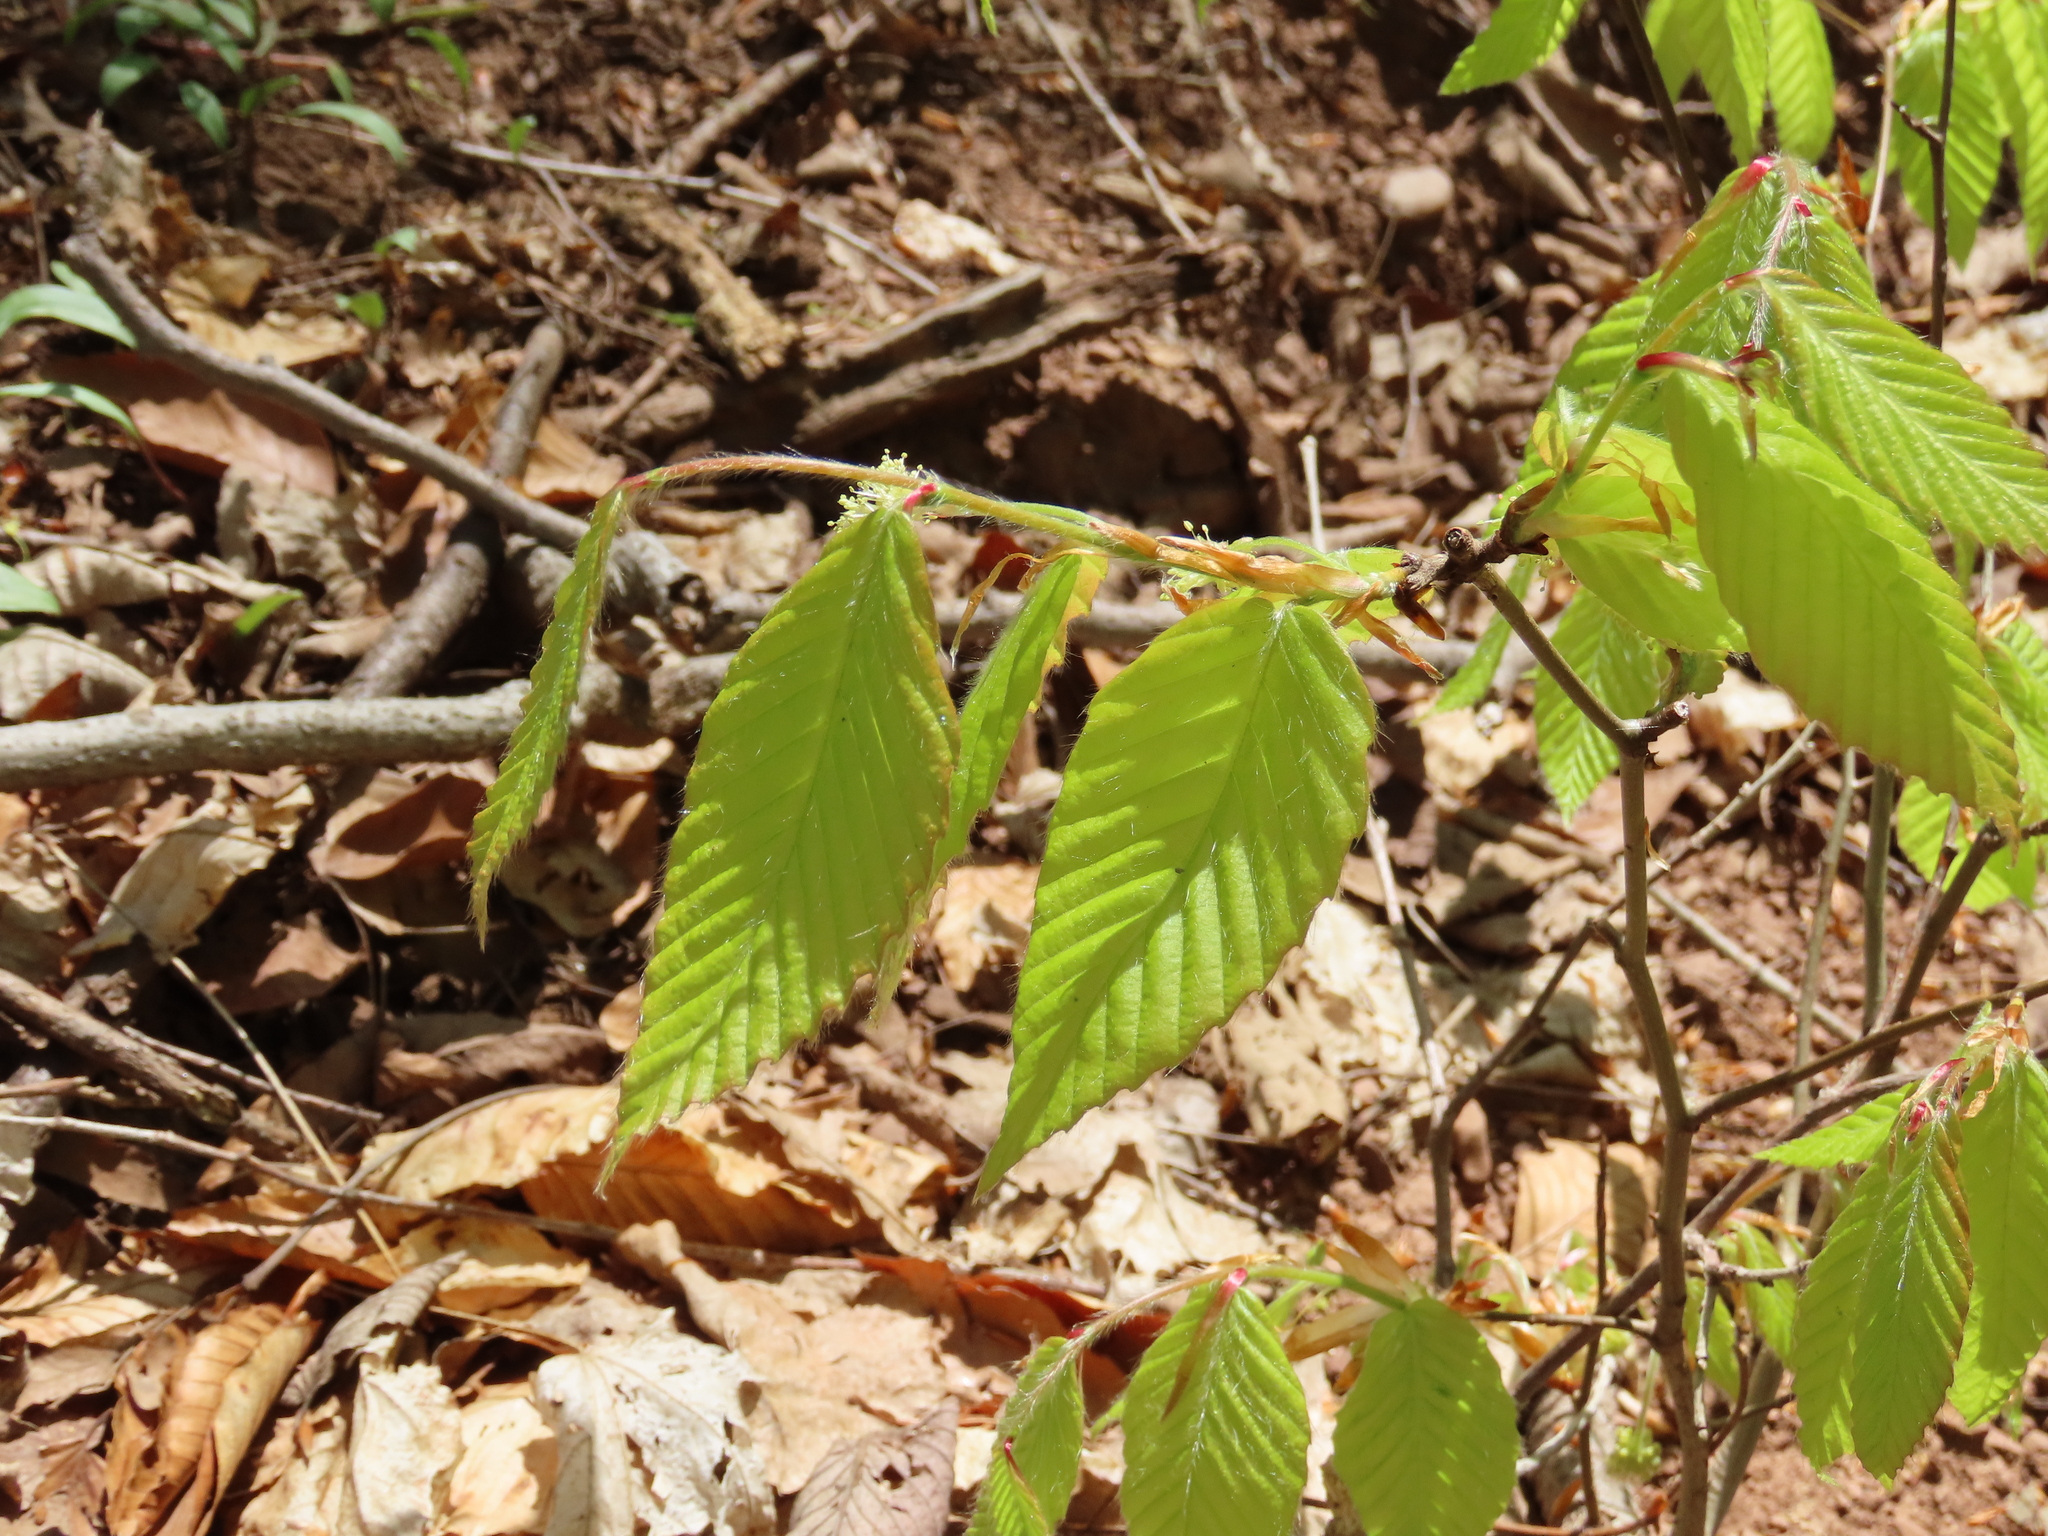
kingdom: Plantae
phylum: Tracheophyta
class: Magnoliopsida
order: Fagales
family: Fagaceae
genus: Fagus
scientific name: Fagus grandifolia
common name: American beech
